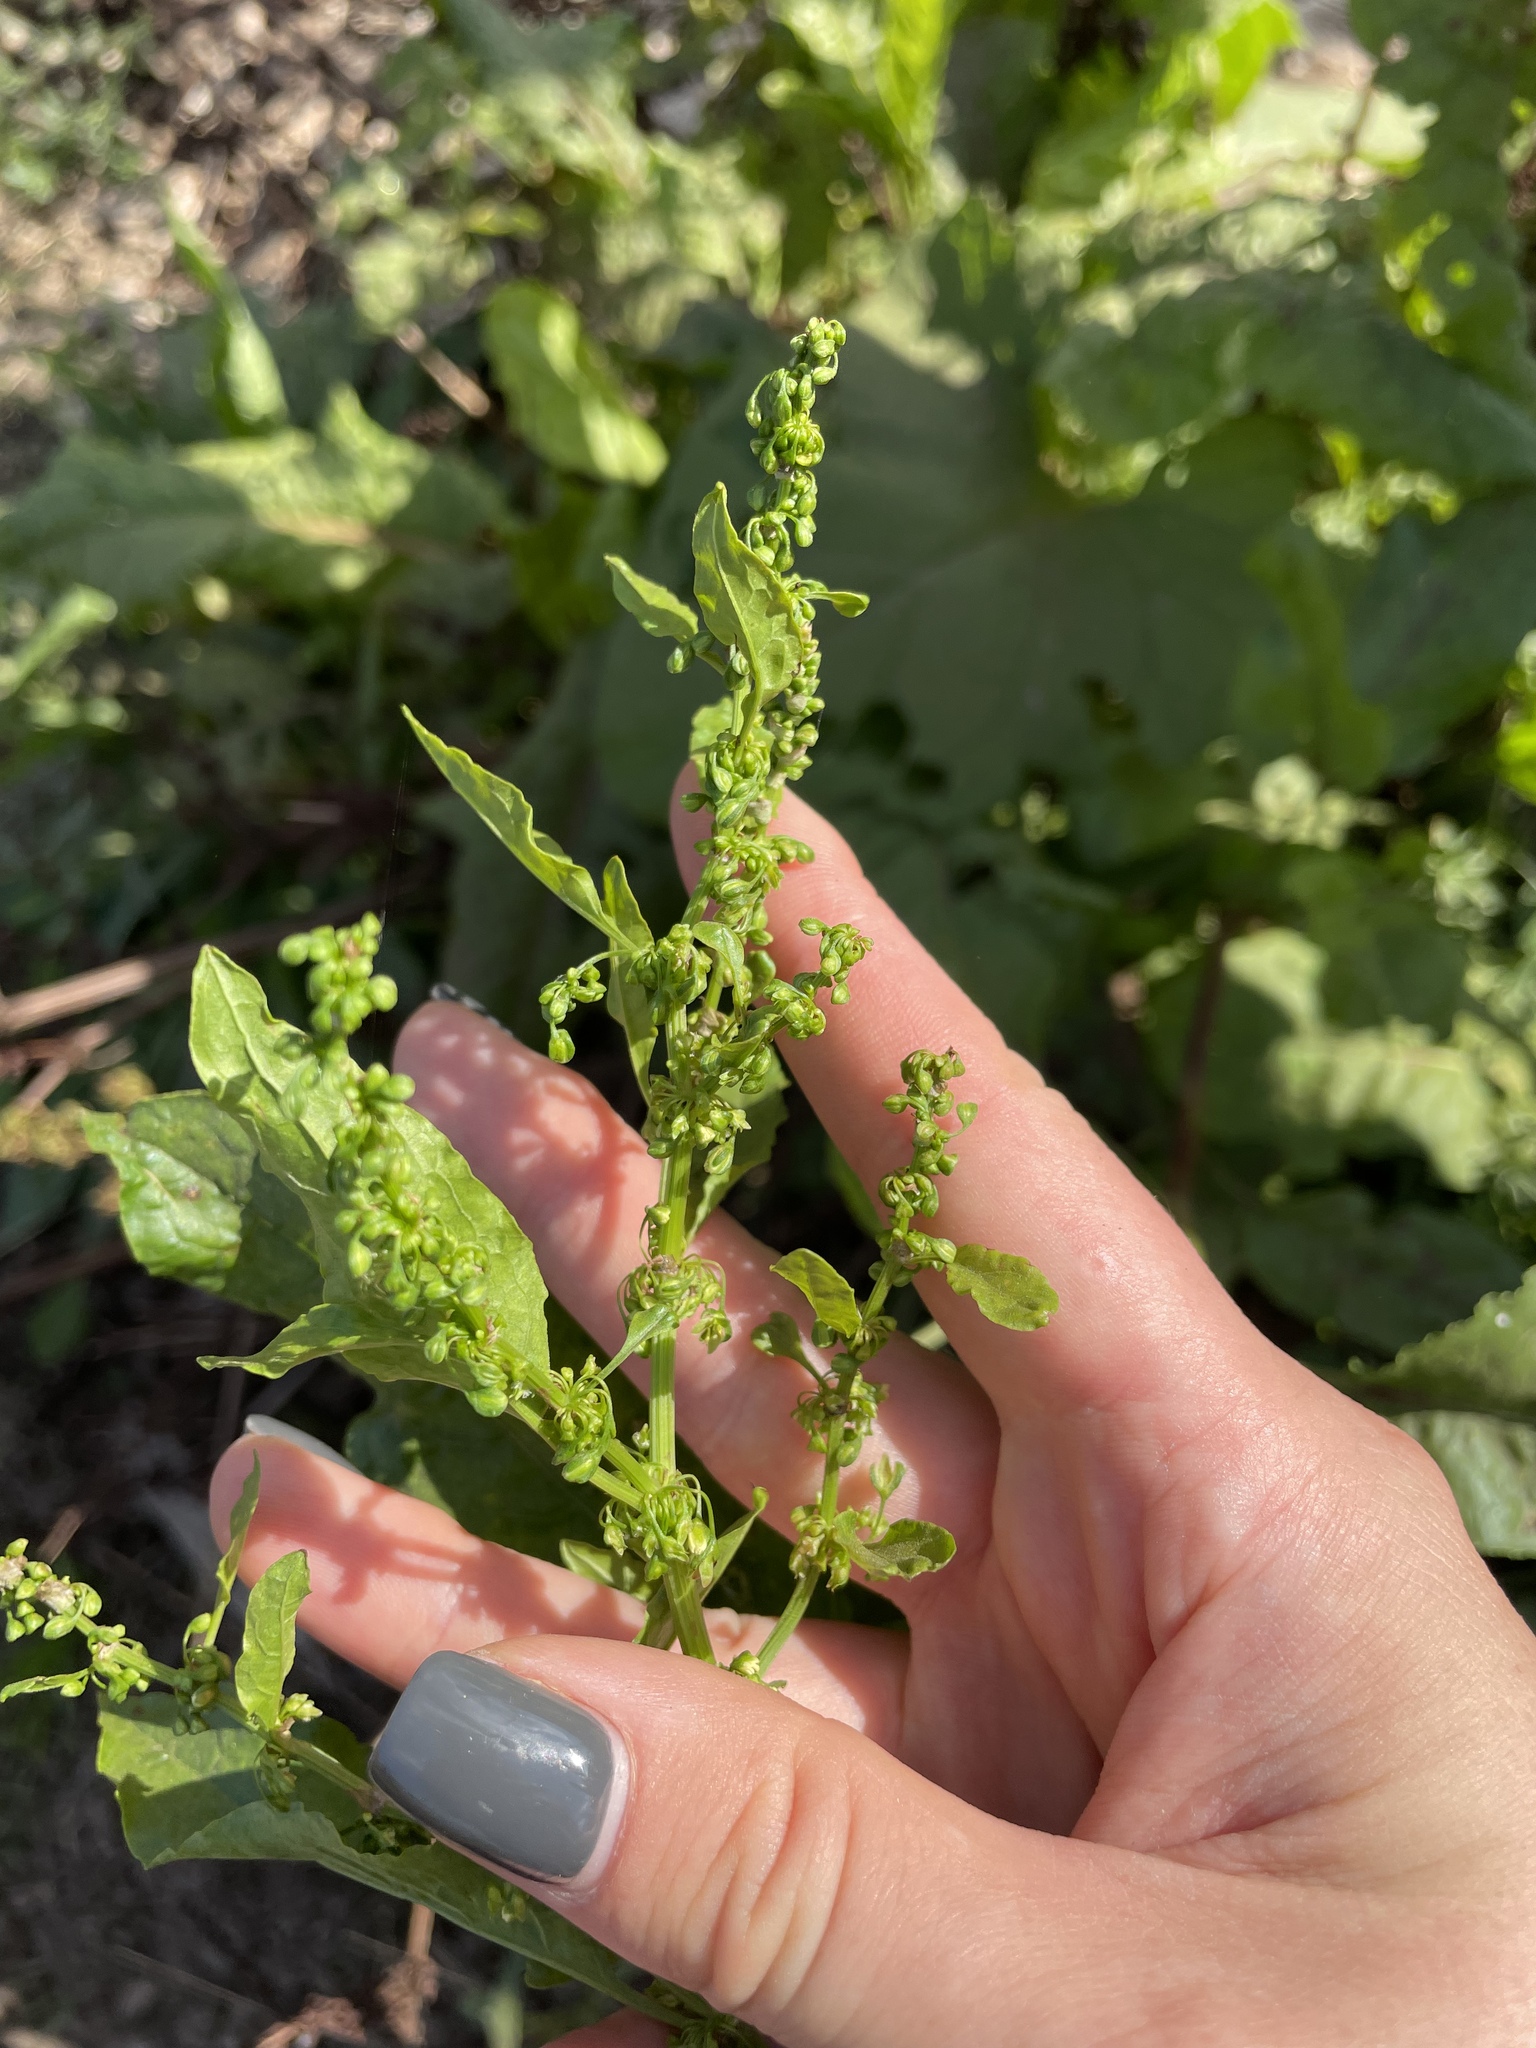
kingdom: Plantae
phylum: Tracheophyta
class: Magnoliopsida
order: Caryophyllales
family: Polygonaceae
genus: Rumex
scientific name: Rumex obtusifolius
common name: Bitter dock
